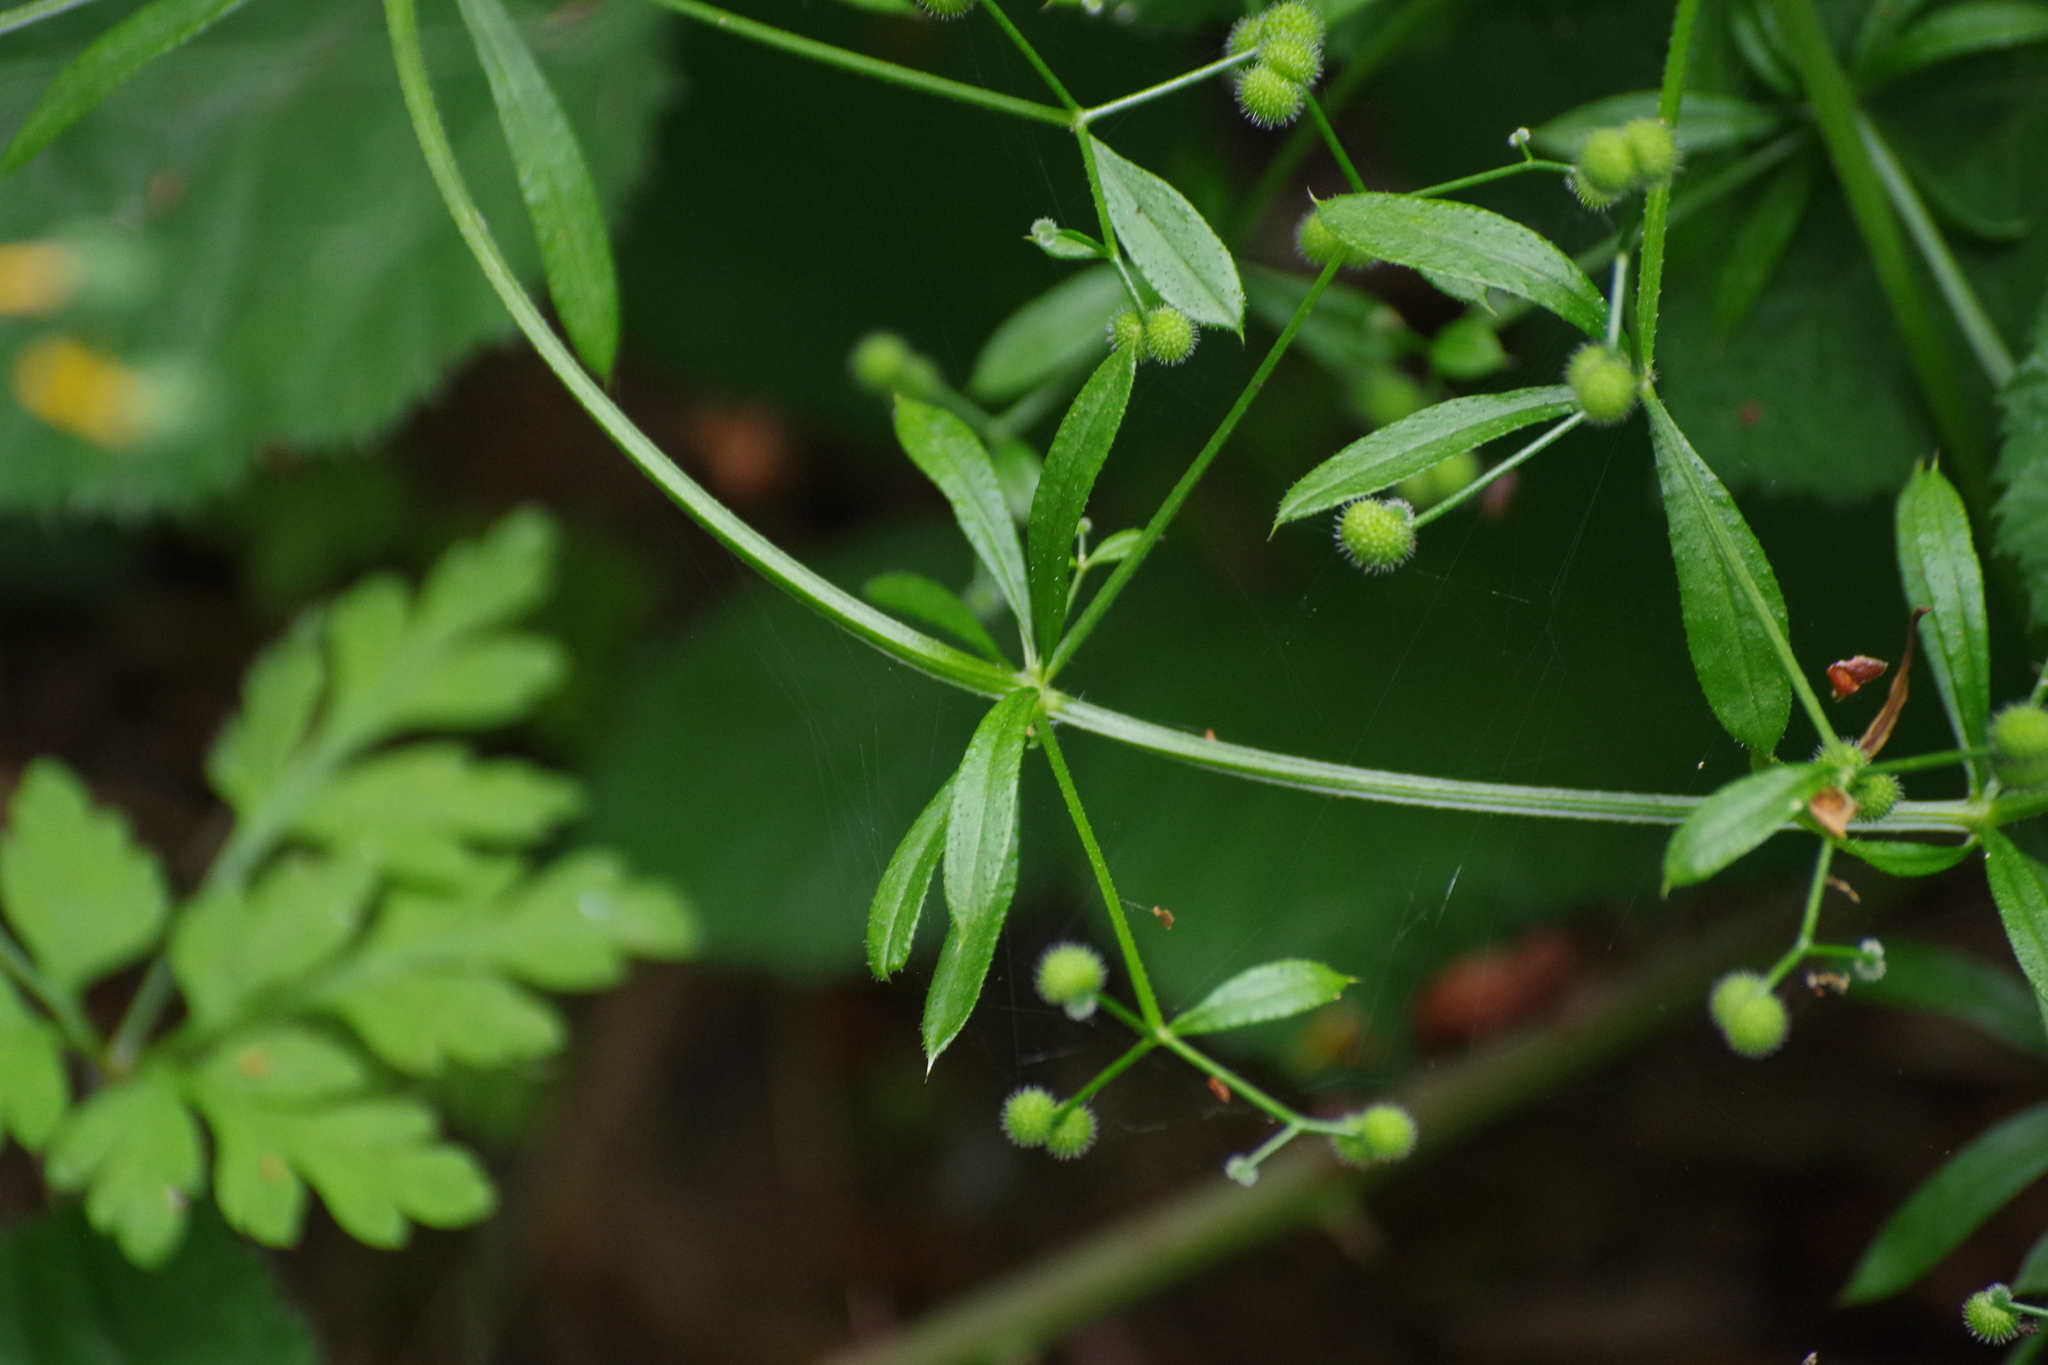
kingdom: Plantae
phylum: Tracheophyta
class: Magnoliopsida
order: Gentianales
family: Rubiaceae
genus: Galium
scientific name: Galium aparine
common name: Cleavers
